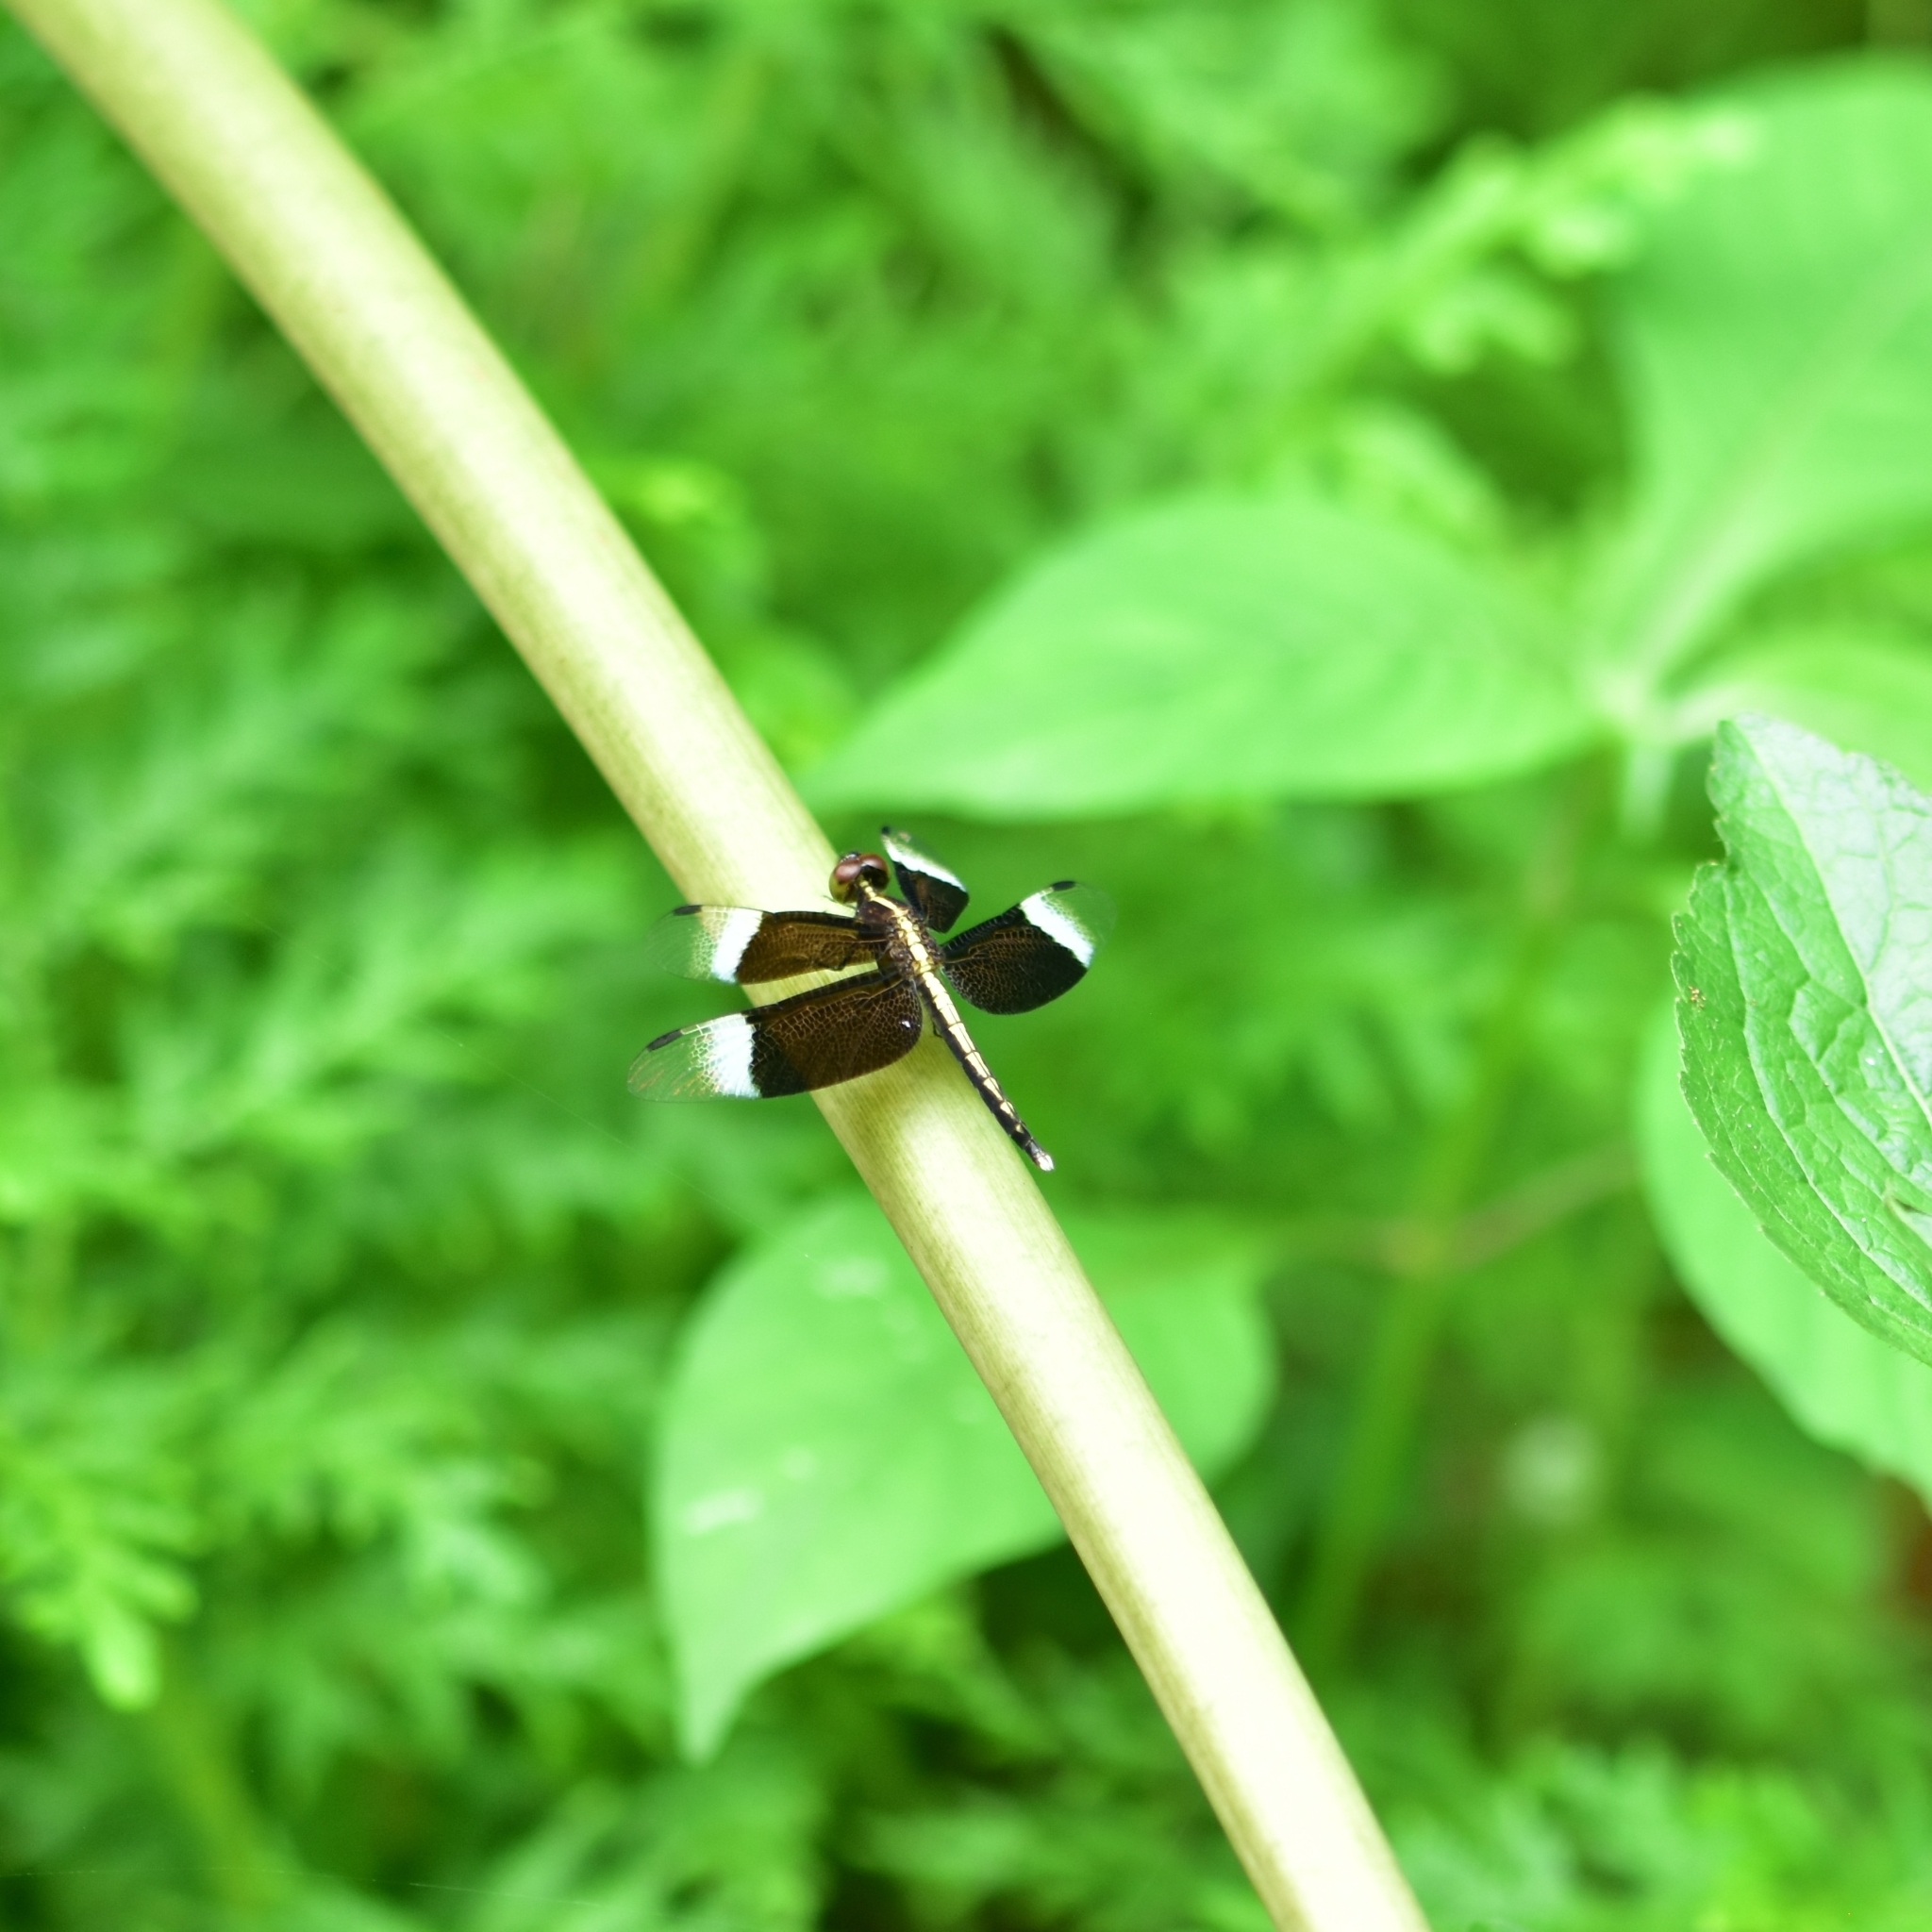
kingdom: Animalia
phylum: Arthropoda
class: Insecta
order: Odonata
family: Libellulidae
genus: Neurothemis
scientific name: Neurothemis tullia
